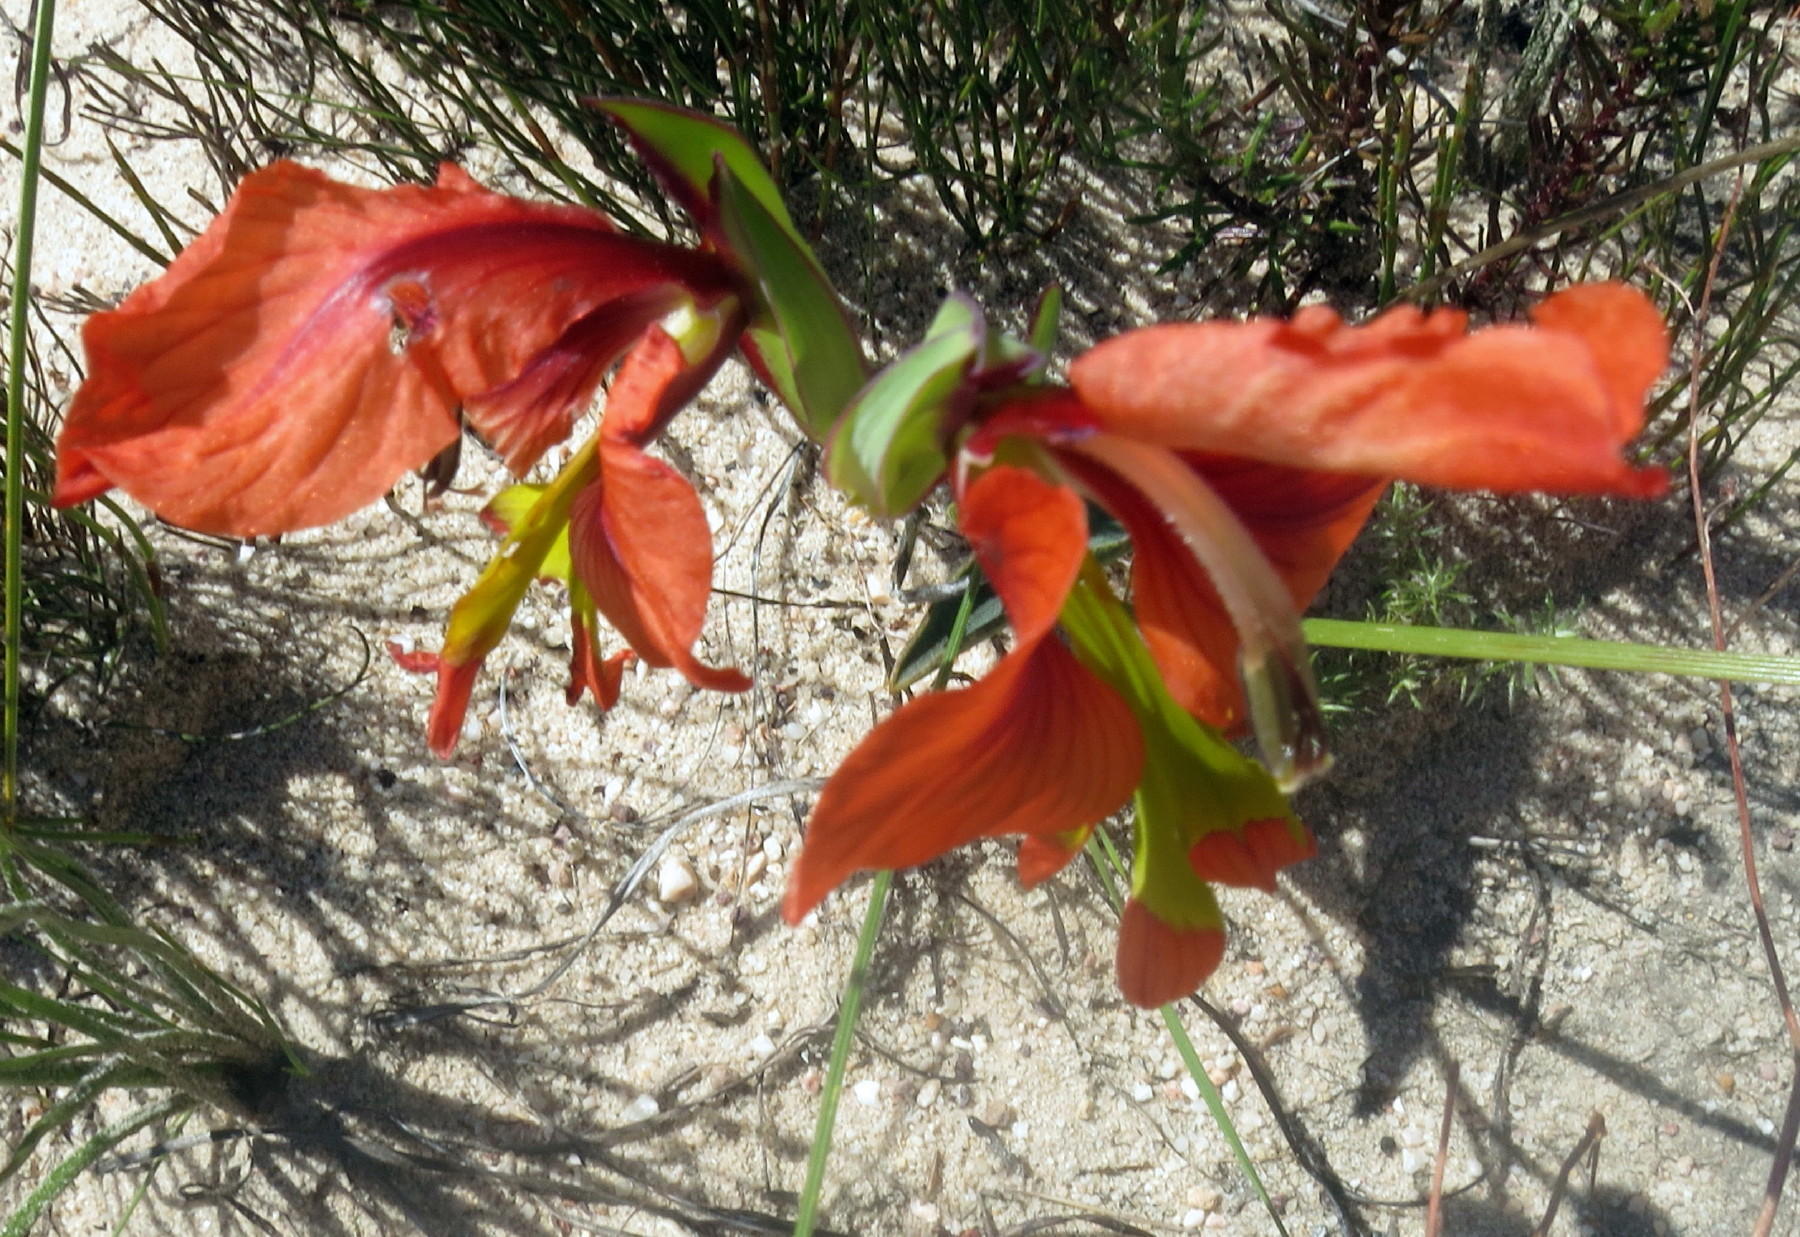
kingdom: Plantae
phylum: Tracheophyta
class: Liliopsida
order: Asparagales
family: Iridaceae
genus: Gladiolus
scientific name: Gladiolus alatus
